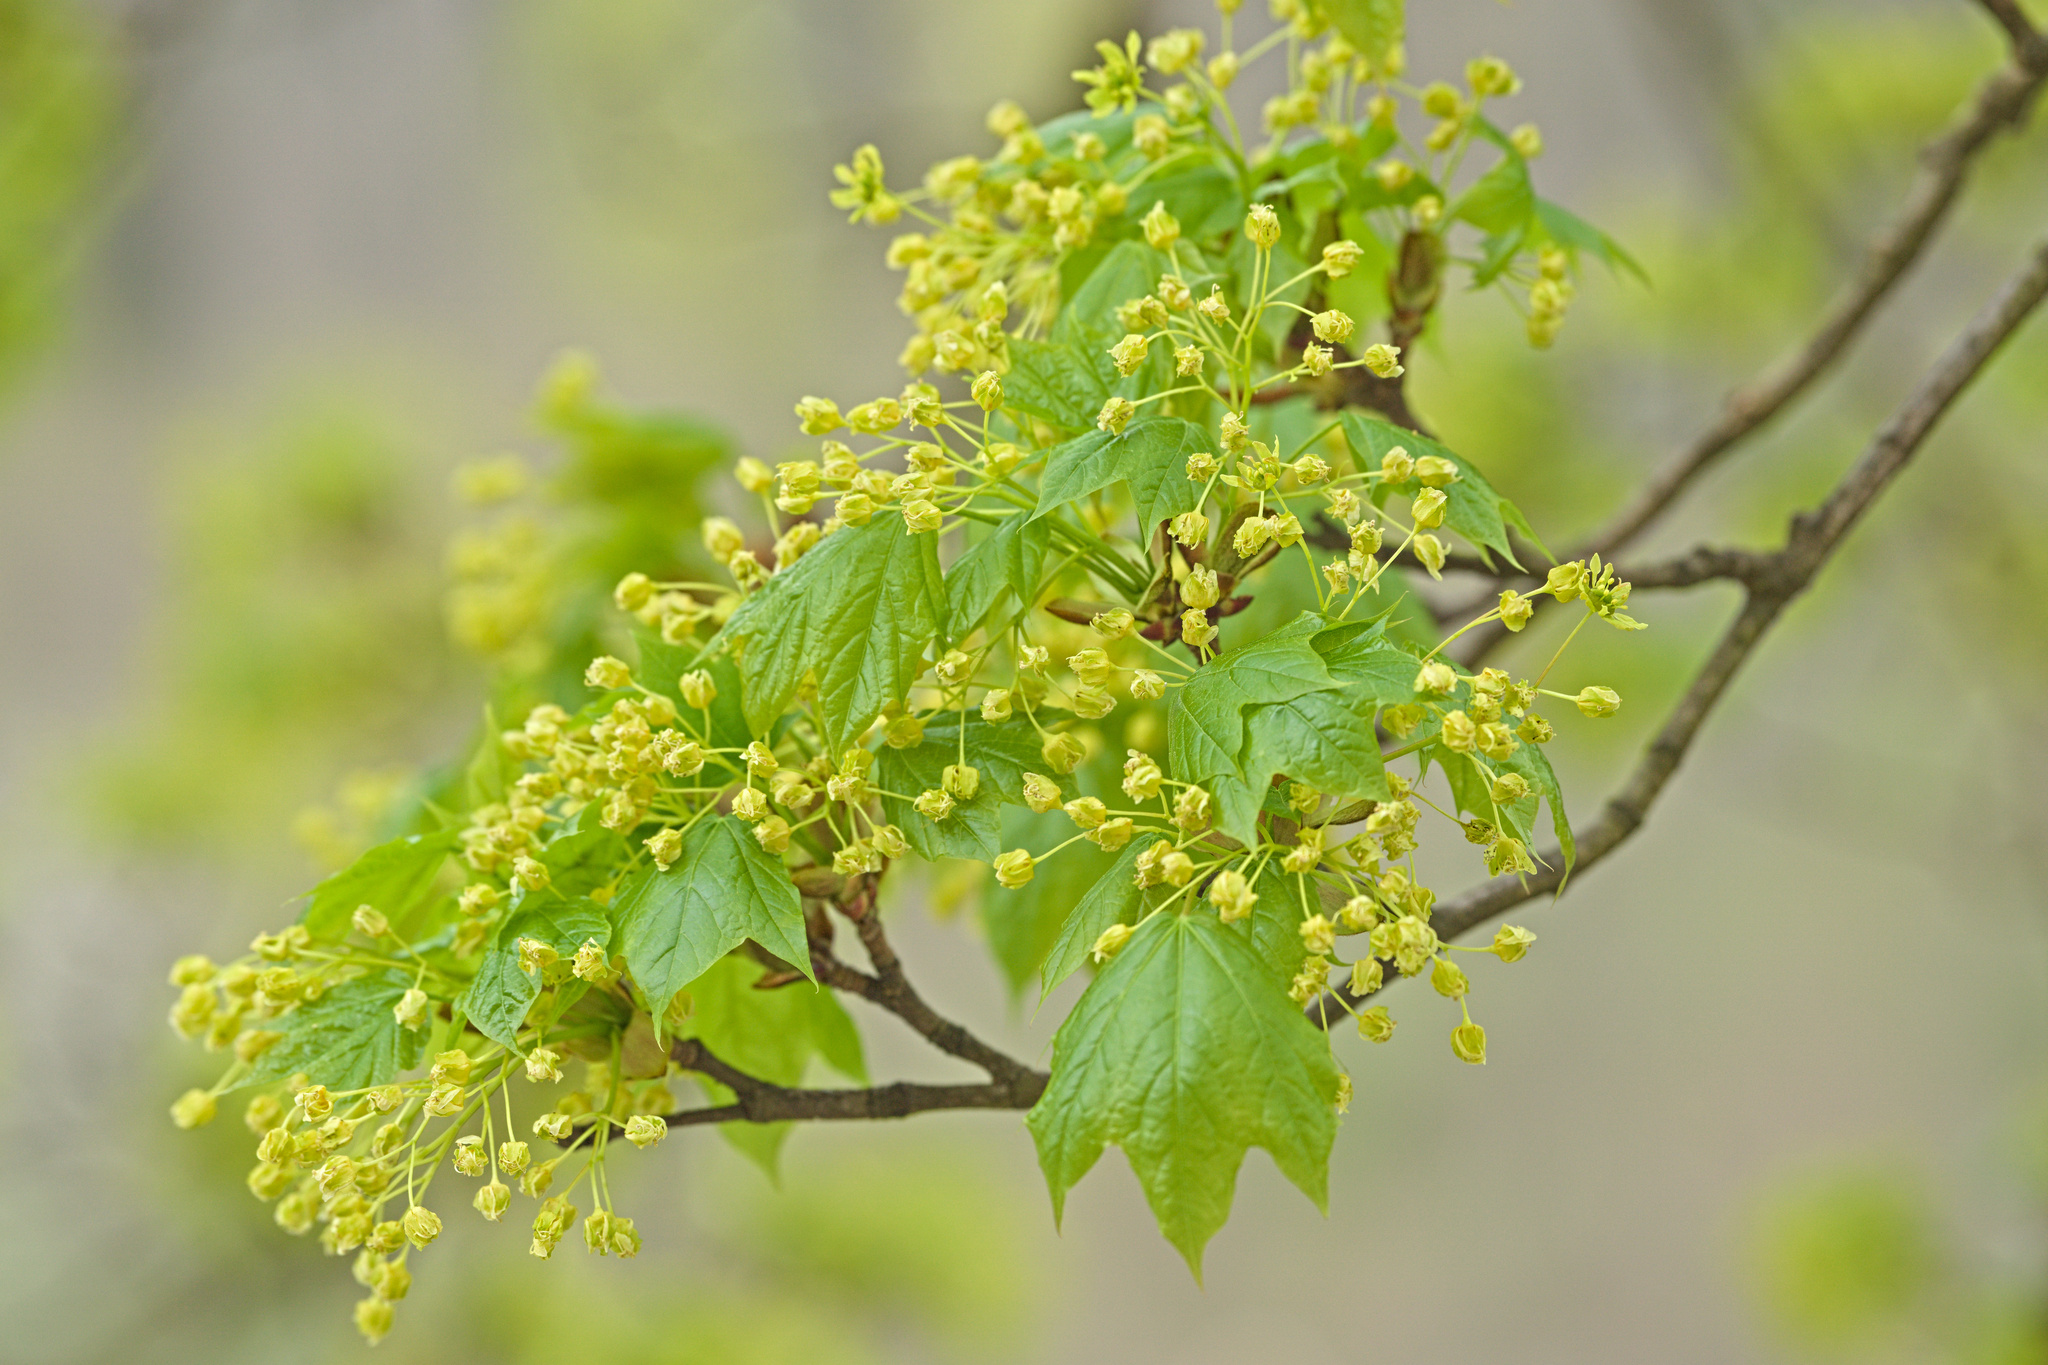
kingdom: Plantae
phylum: Tracheophyta
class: Magnoliopsida
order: Sapindales
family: Sapindaceae
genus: Acer
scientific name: Acer platanoides
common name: Norway maple
